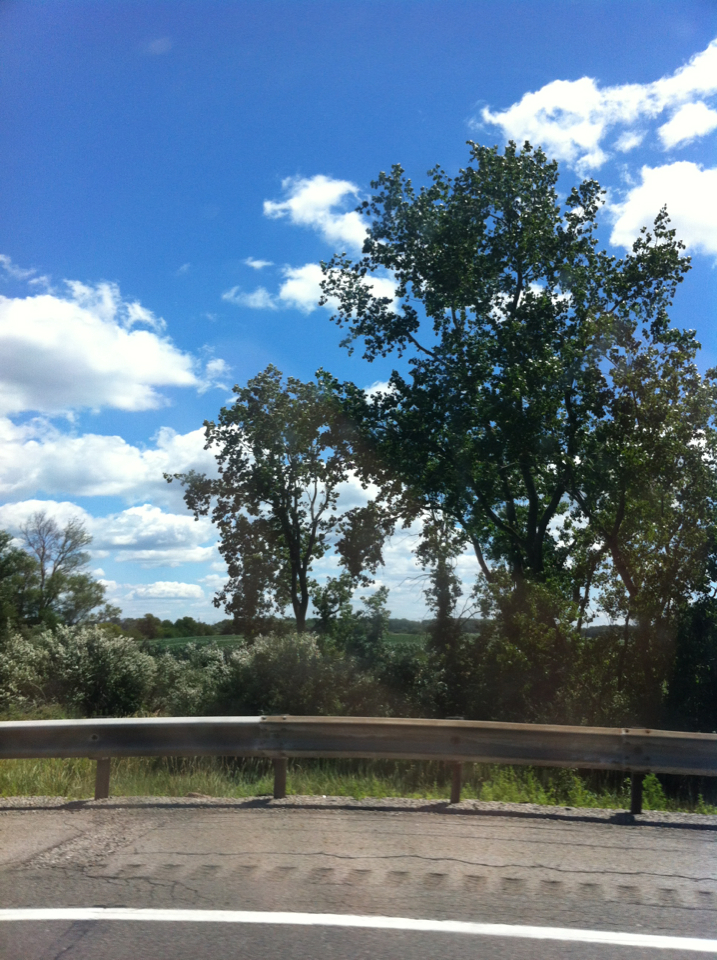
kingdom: Plantae
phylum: Tracheophyta
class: Magnoliopsida
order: Malpighiales
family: Salicaceae
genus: Populus
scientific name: Populus deltoides
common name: Eastern cottonwood
